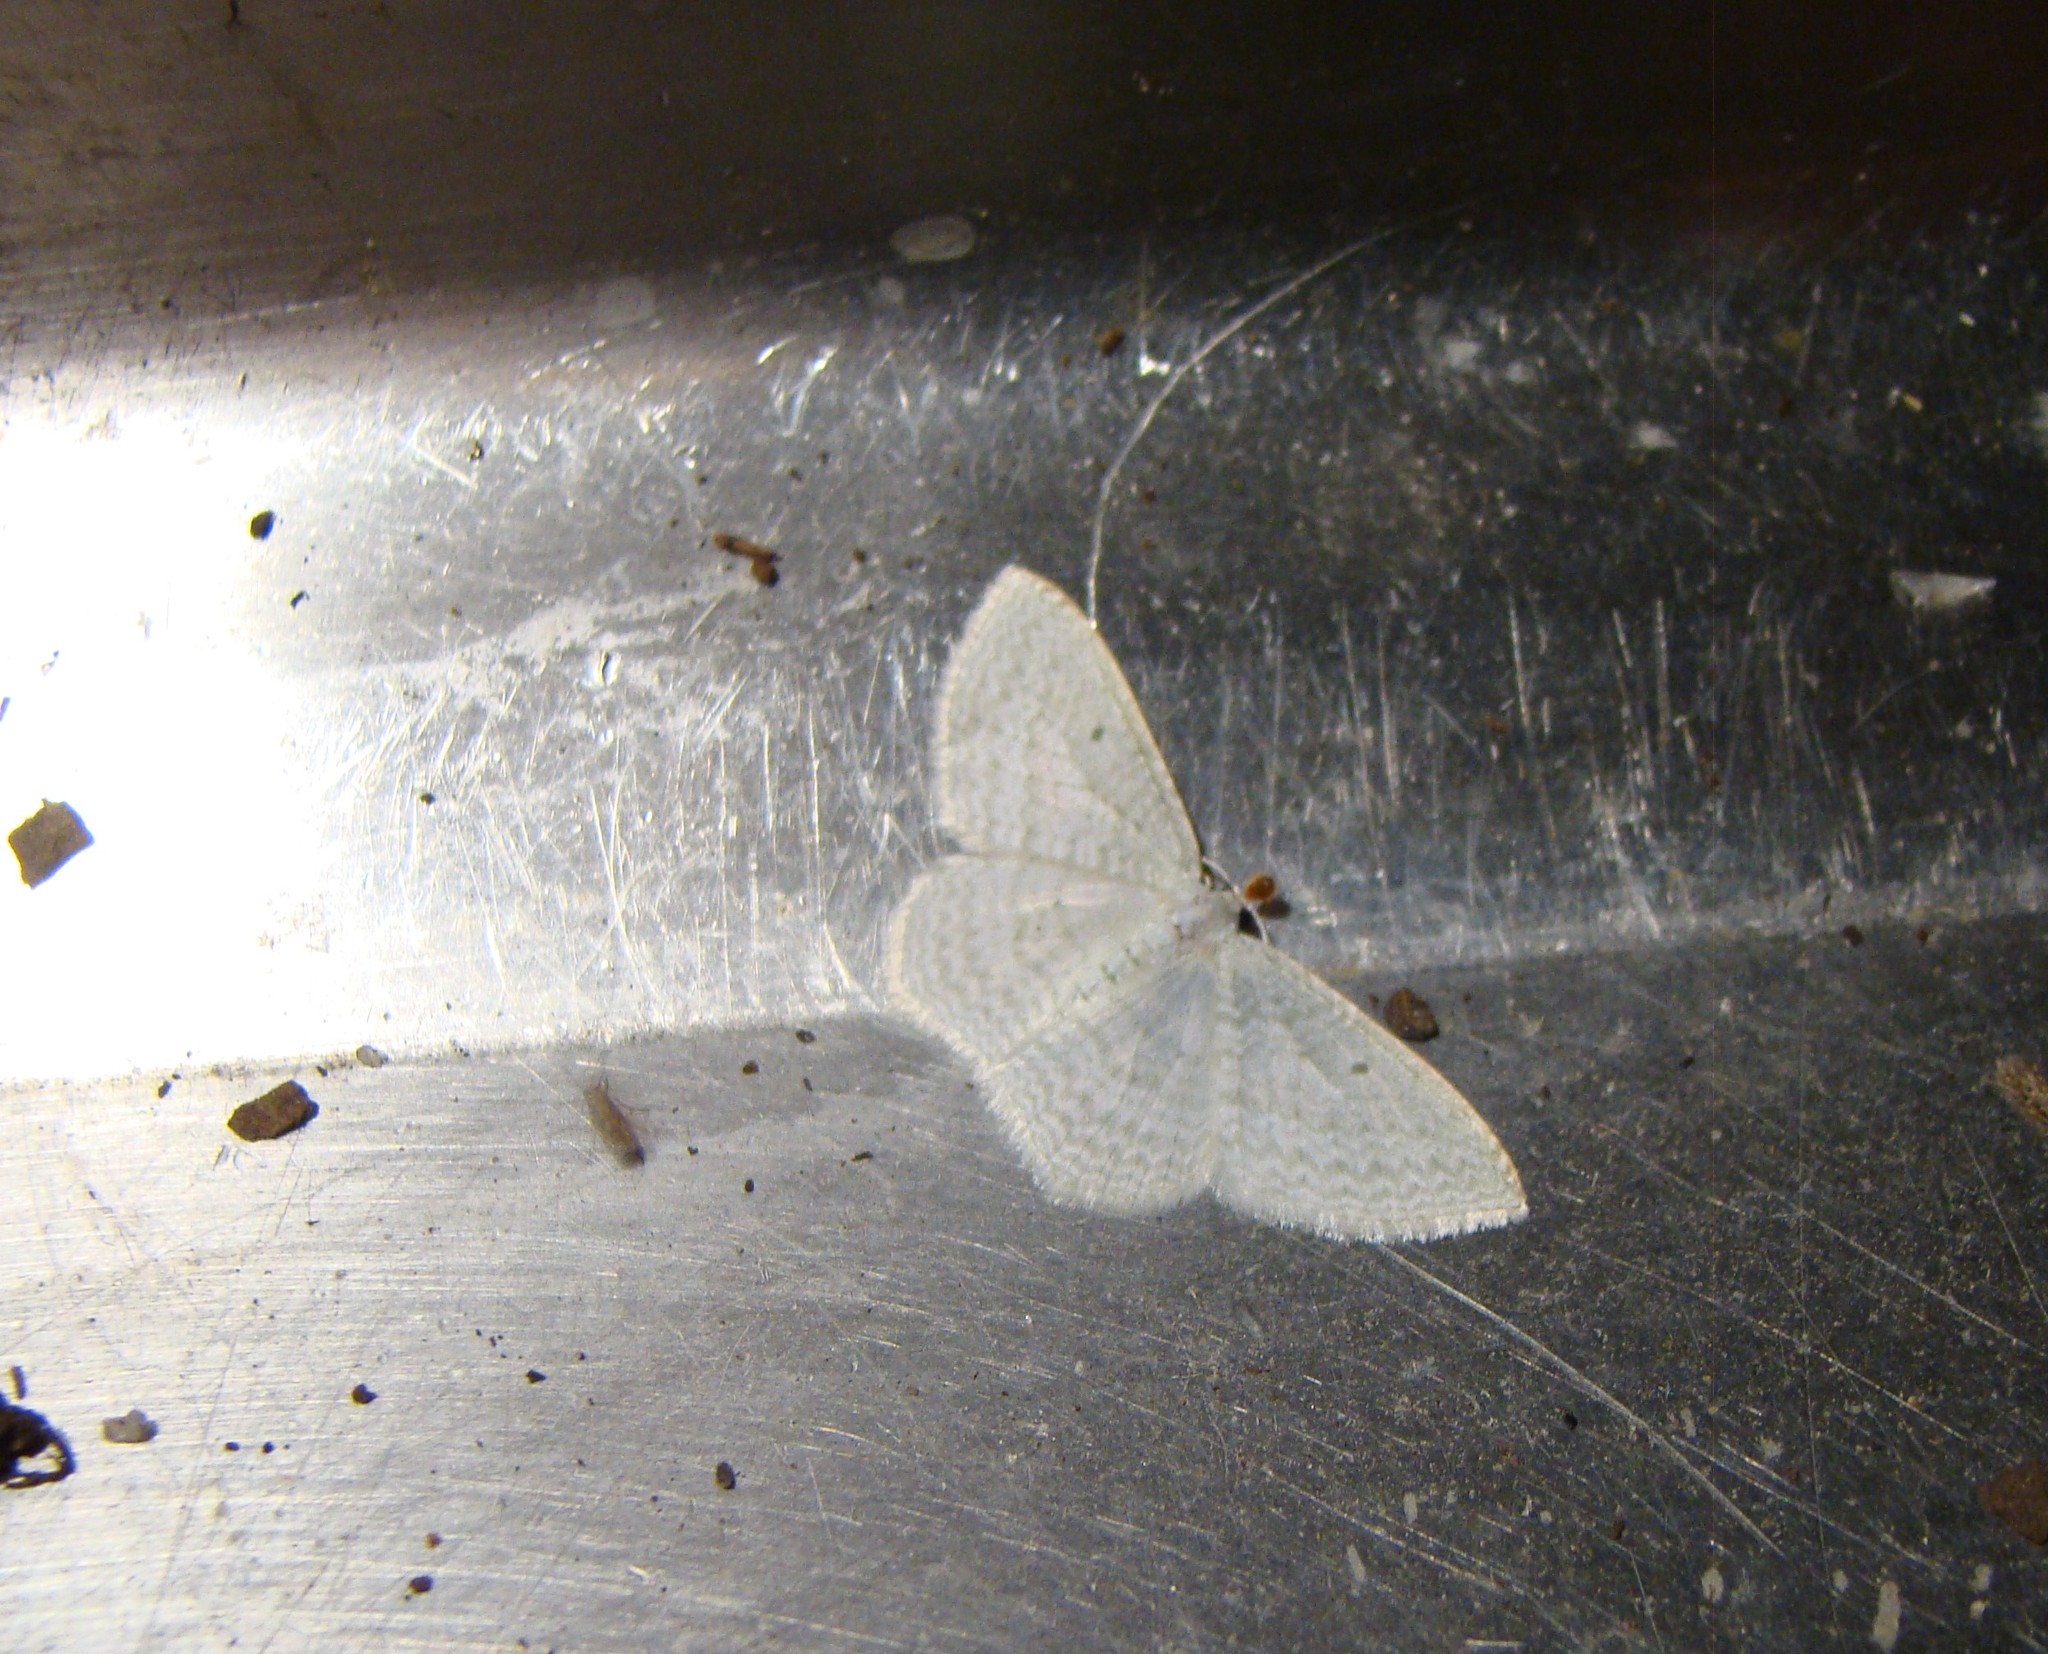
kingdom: Animalia
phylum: Arthropoda
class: Insecta
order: Lepidoptera
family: Geometridae
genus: Poecilasthena
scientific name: Poecilasthena pulchraria
